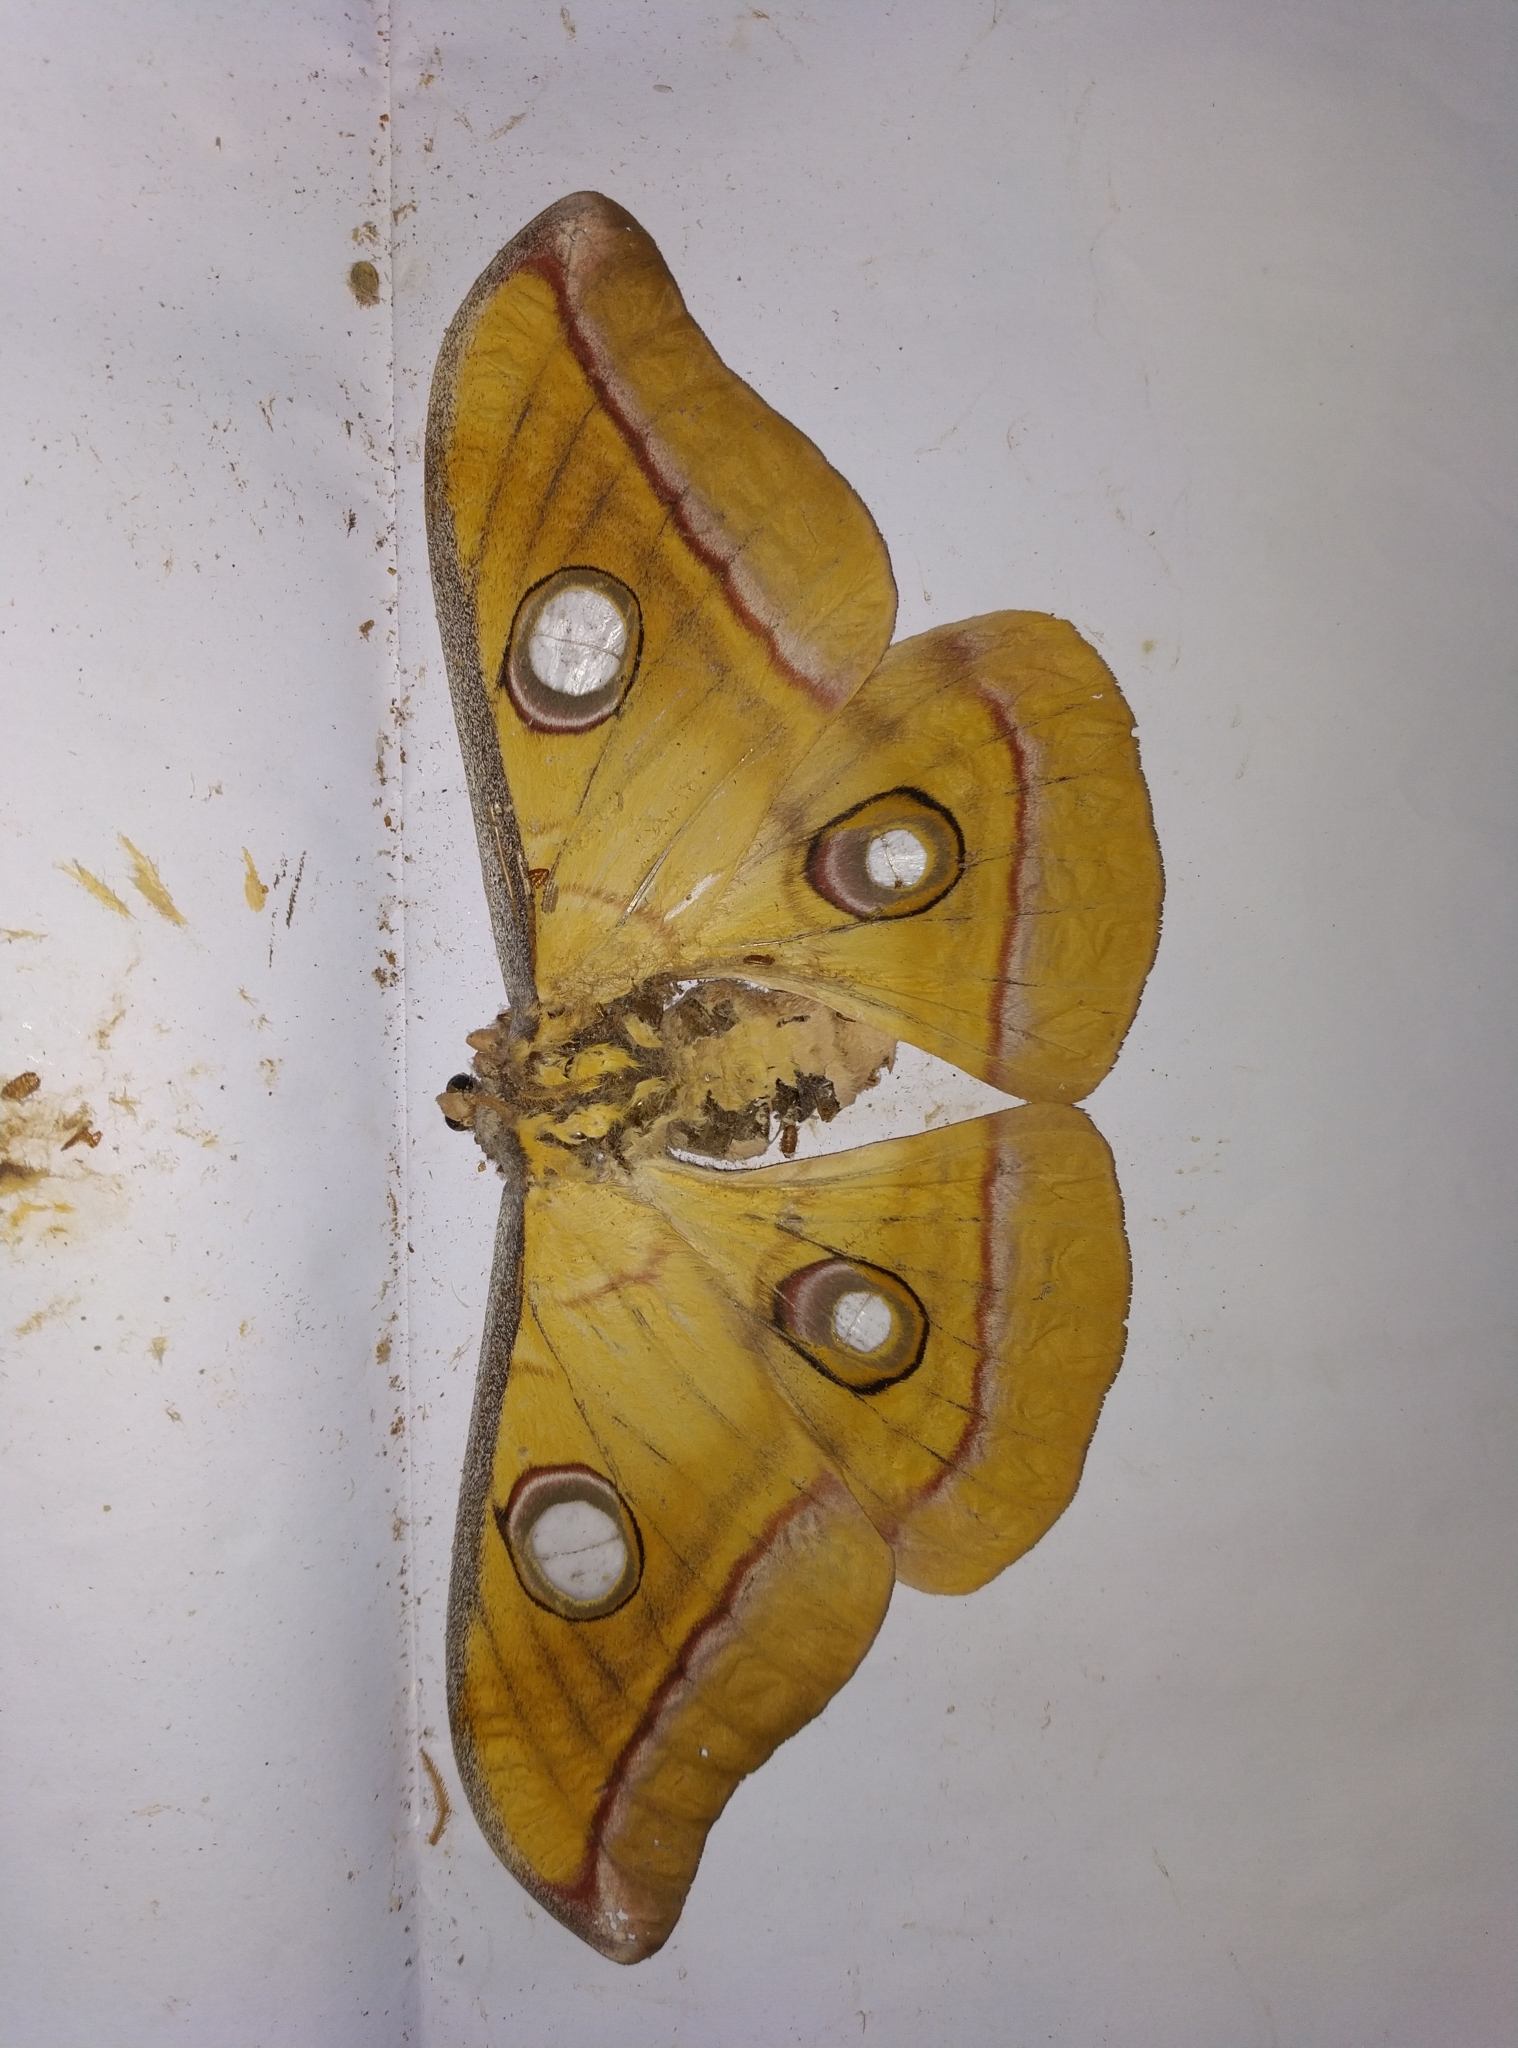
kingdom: Animalia
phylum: Arthropoda
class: Insecta
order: Lepidoptera
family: Saturniidae
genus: Antheraea
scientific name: Antheraea paphia
